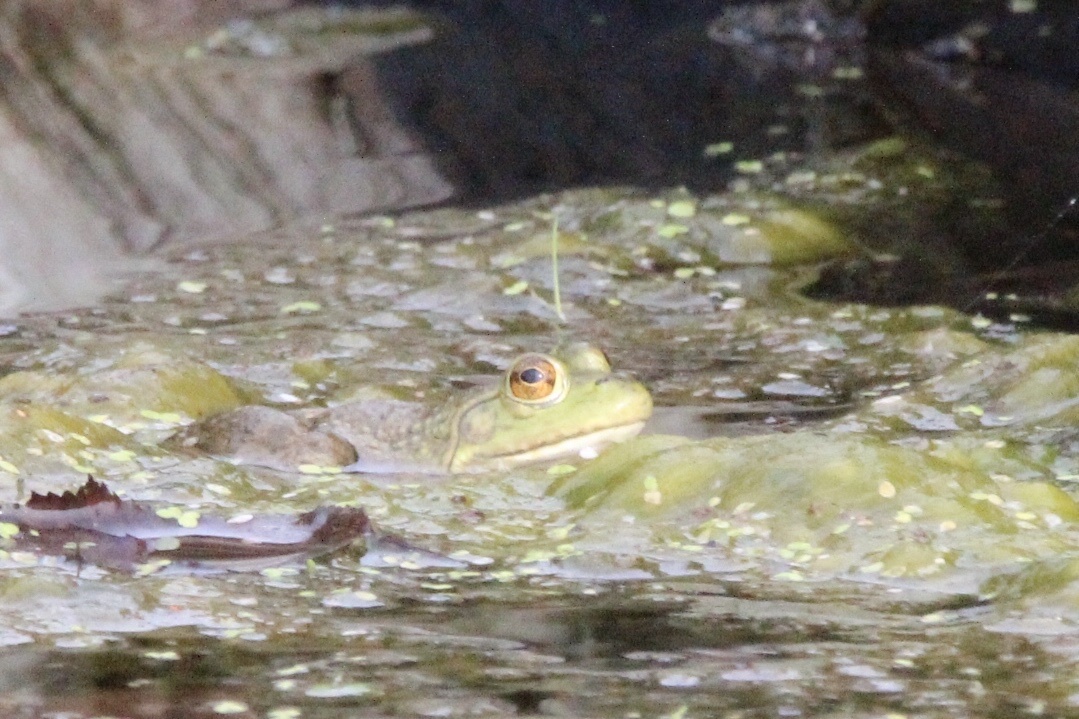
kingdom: Animalia
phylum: Chordata
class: Amphibia
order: Anura
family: Ranidae
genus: Lithobates
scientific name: Lithobates catesbeianus
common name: American bullfrog
